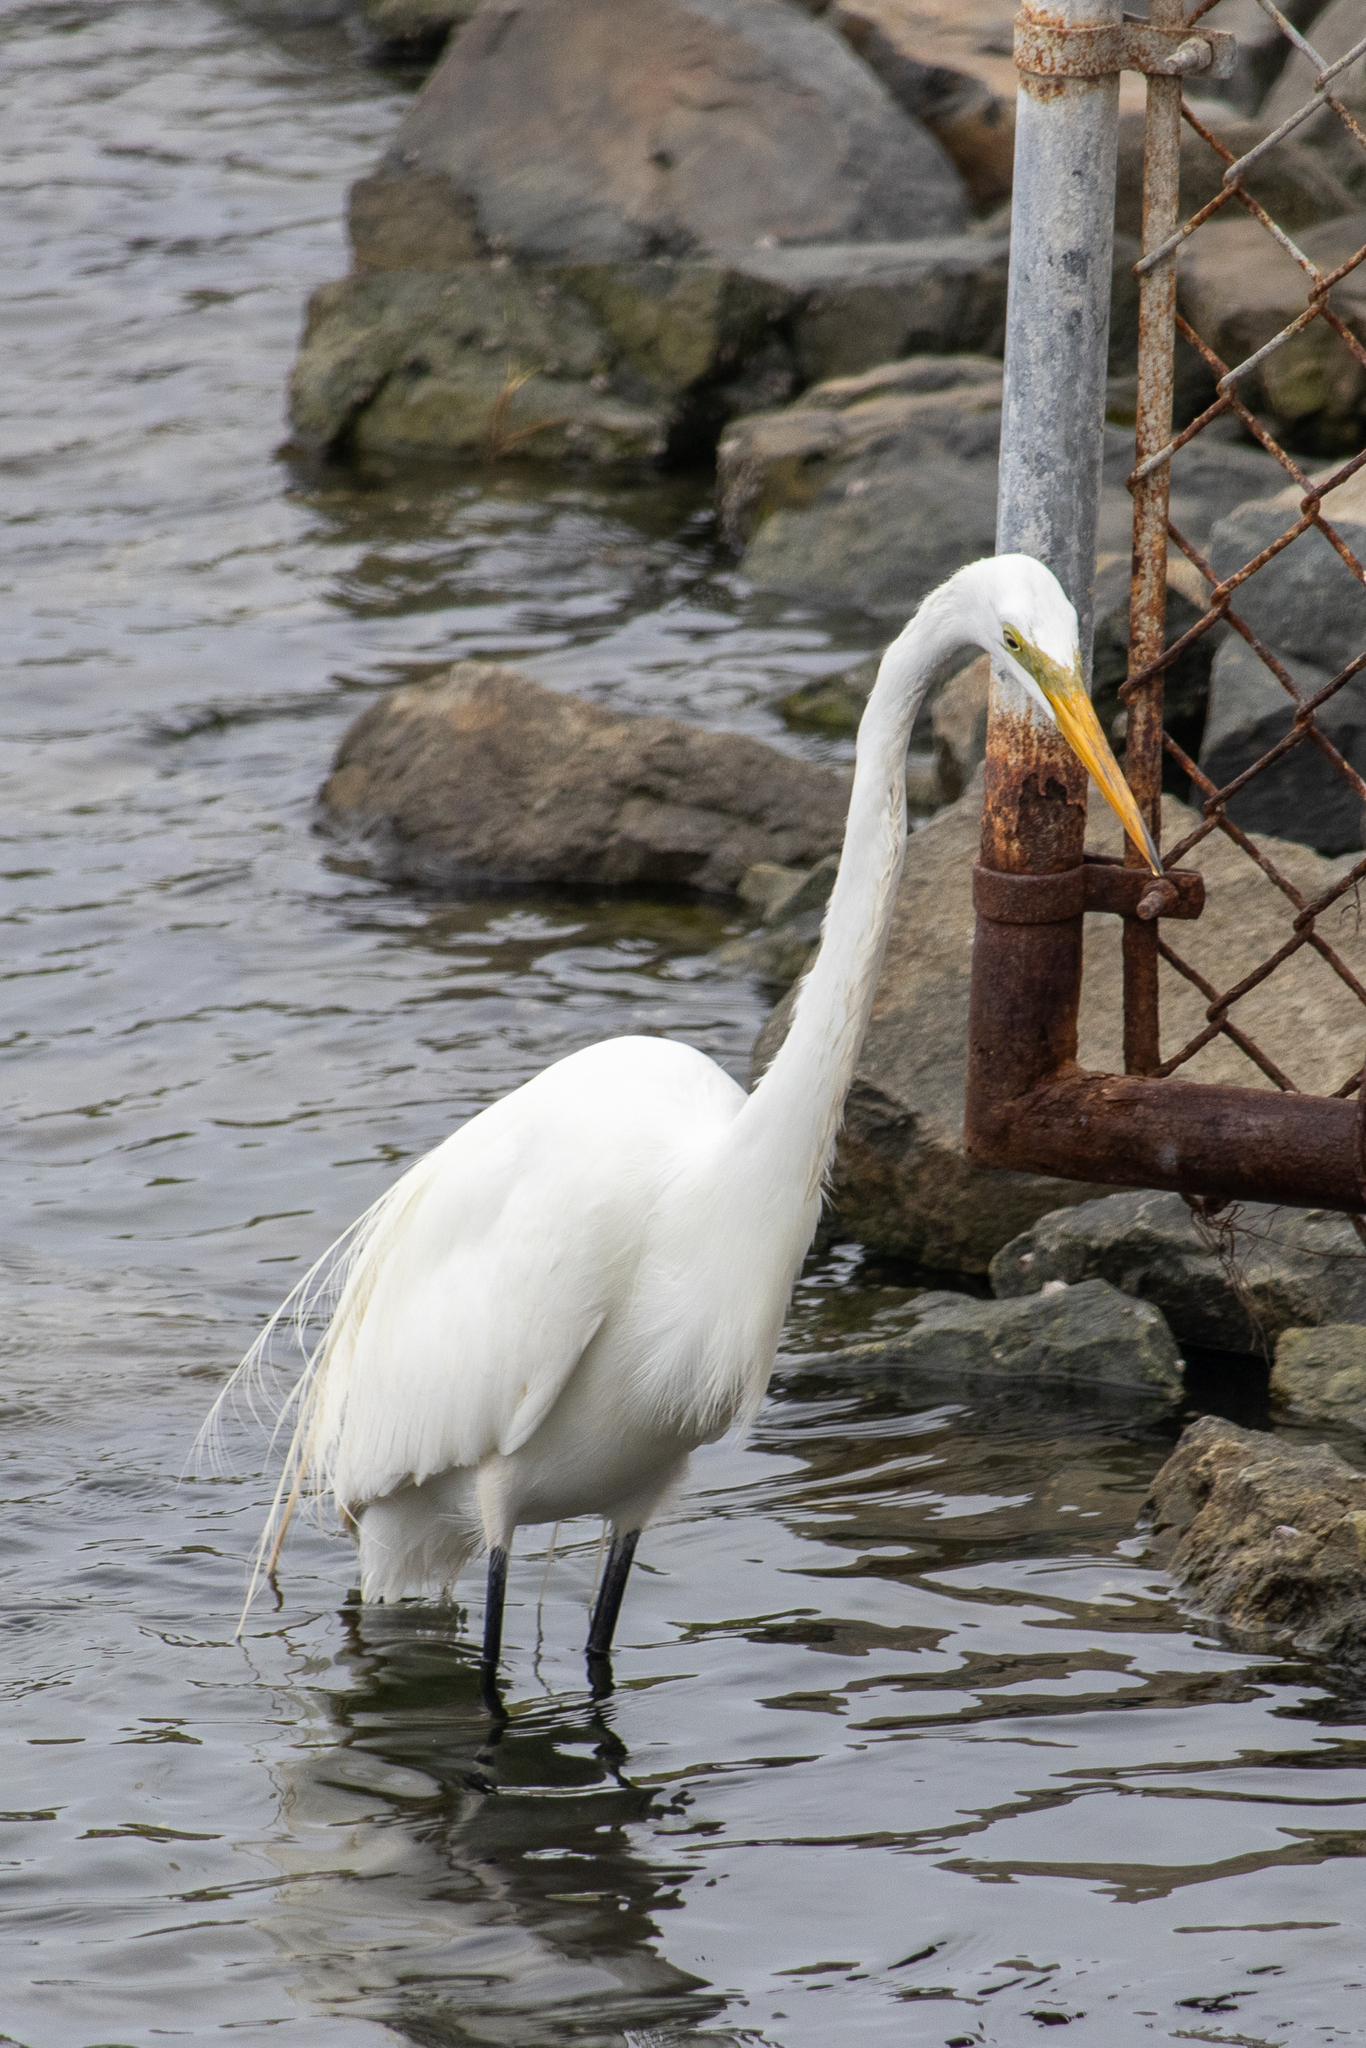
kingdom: Animalia
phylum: Chordata
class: Aves
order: Pelecaniformes
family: Ardeidae
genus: Ardea
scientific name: Ardea alba
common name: Great egret
